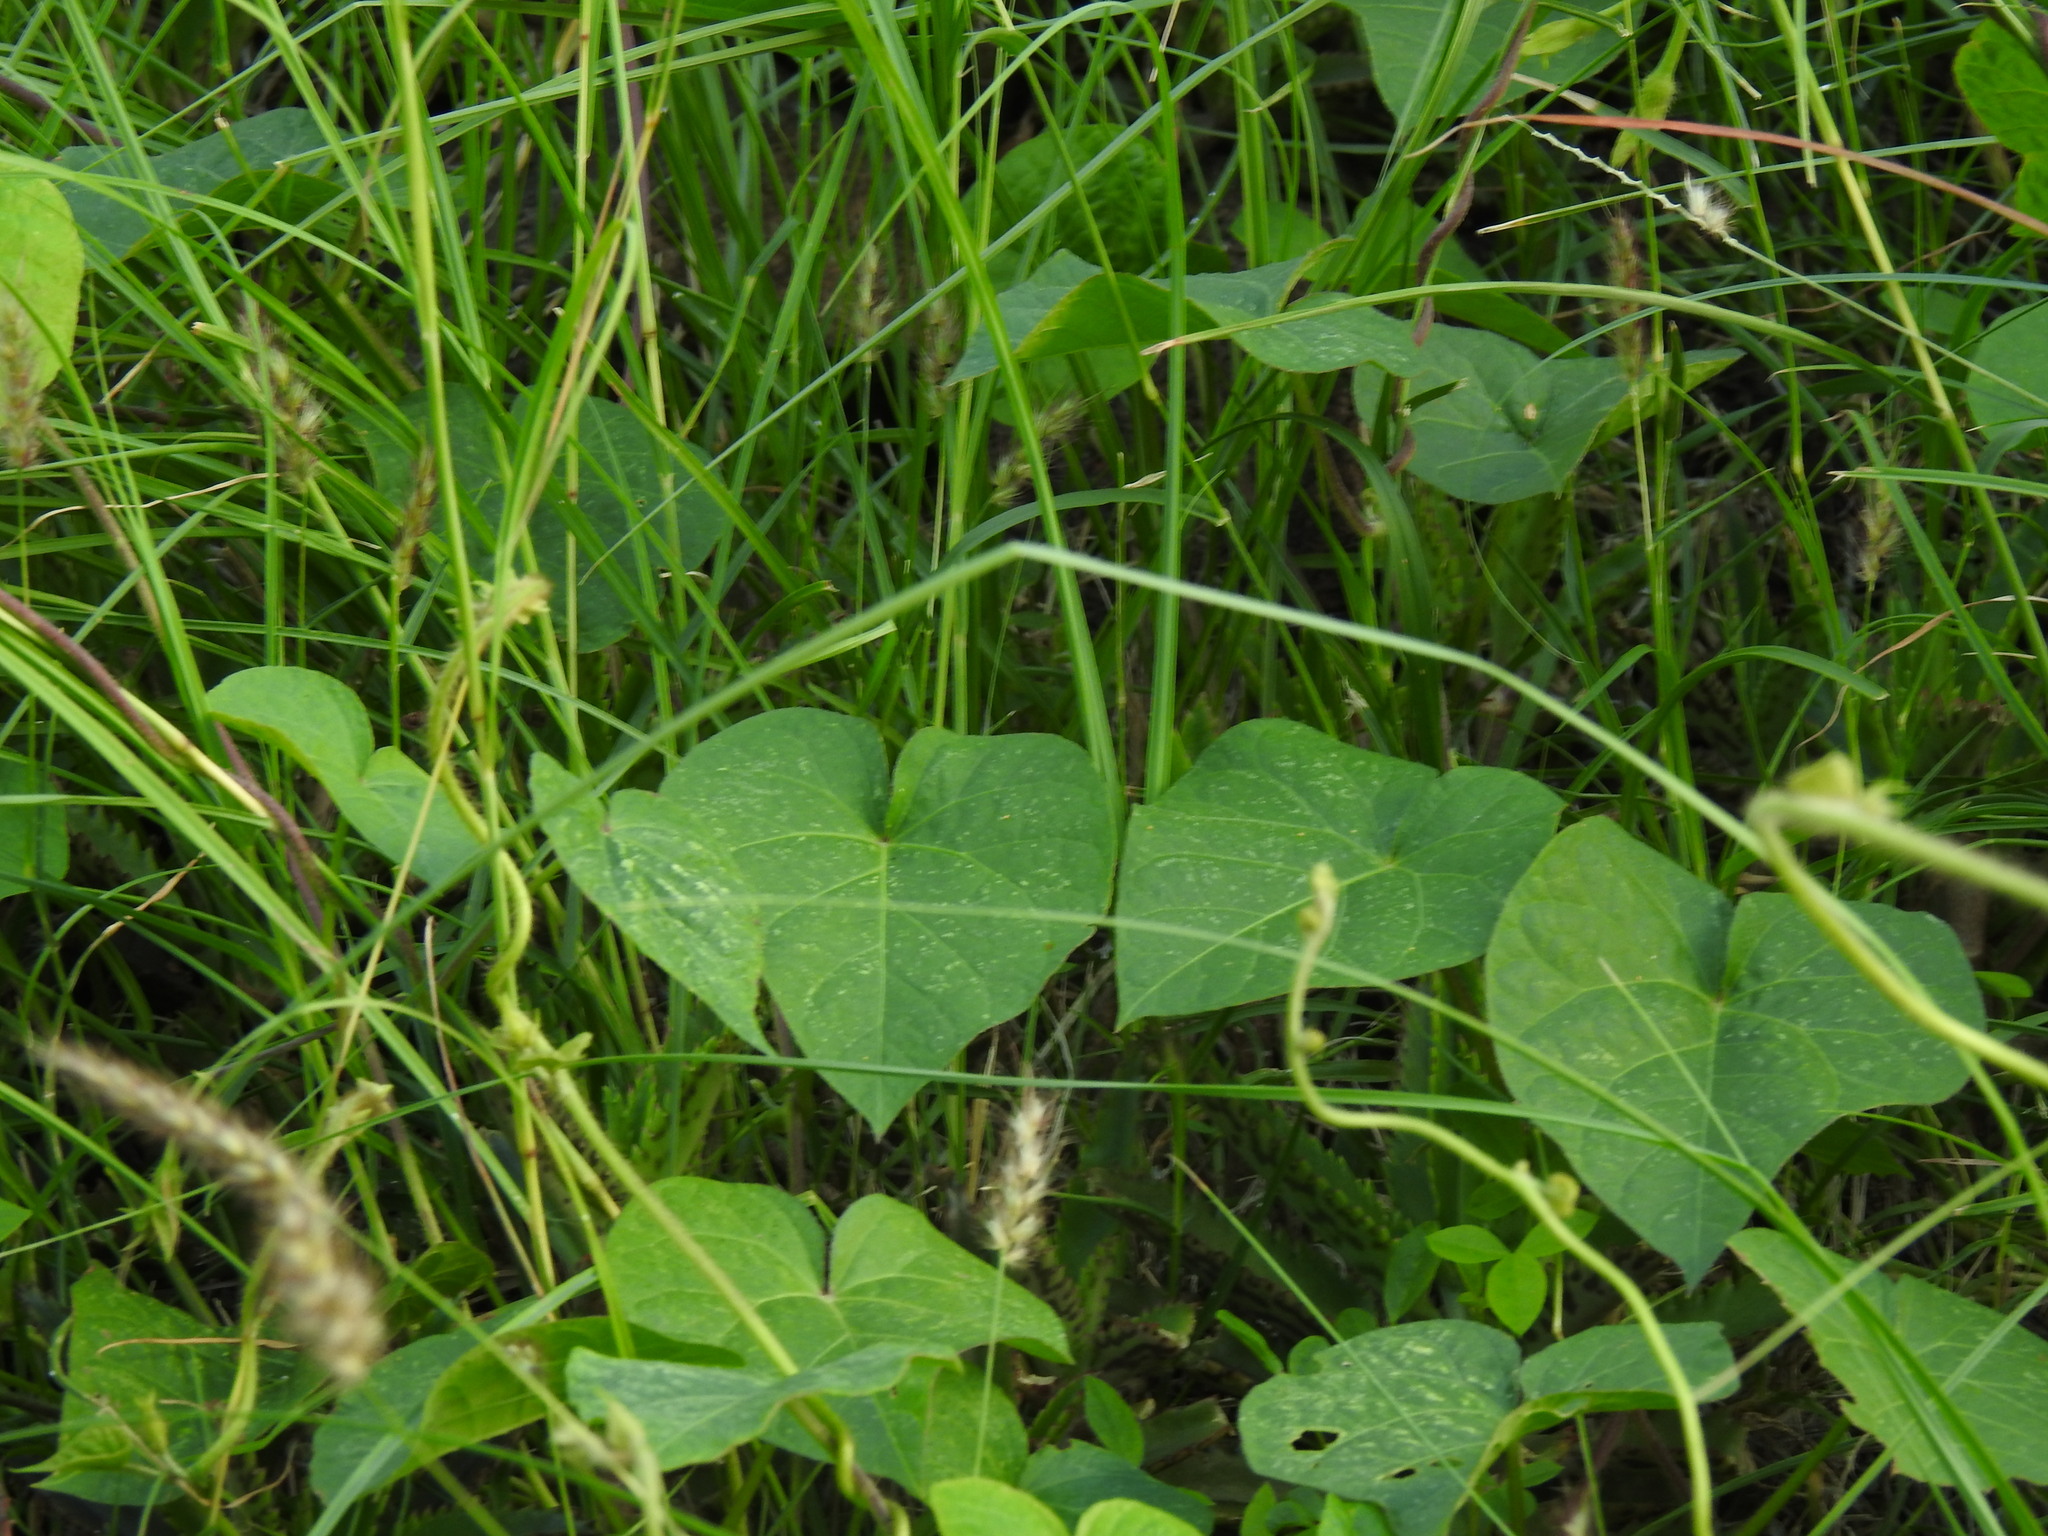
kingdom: Plantae
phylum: Tracheophyta
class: Magnoliopsida
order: Solanales
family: Convolvulaceae
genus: Ipomoea
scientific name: Ipomoea purpurea
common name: Common morning-glory
